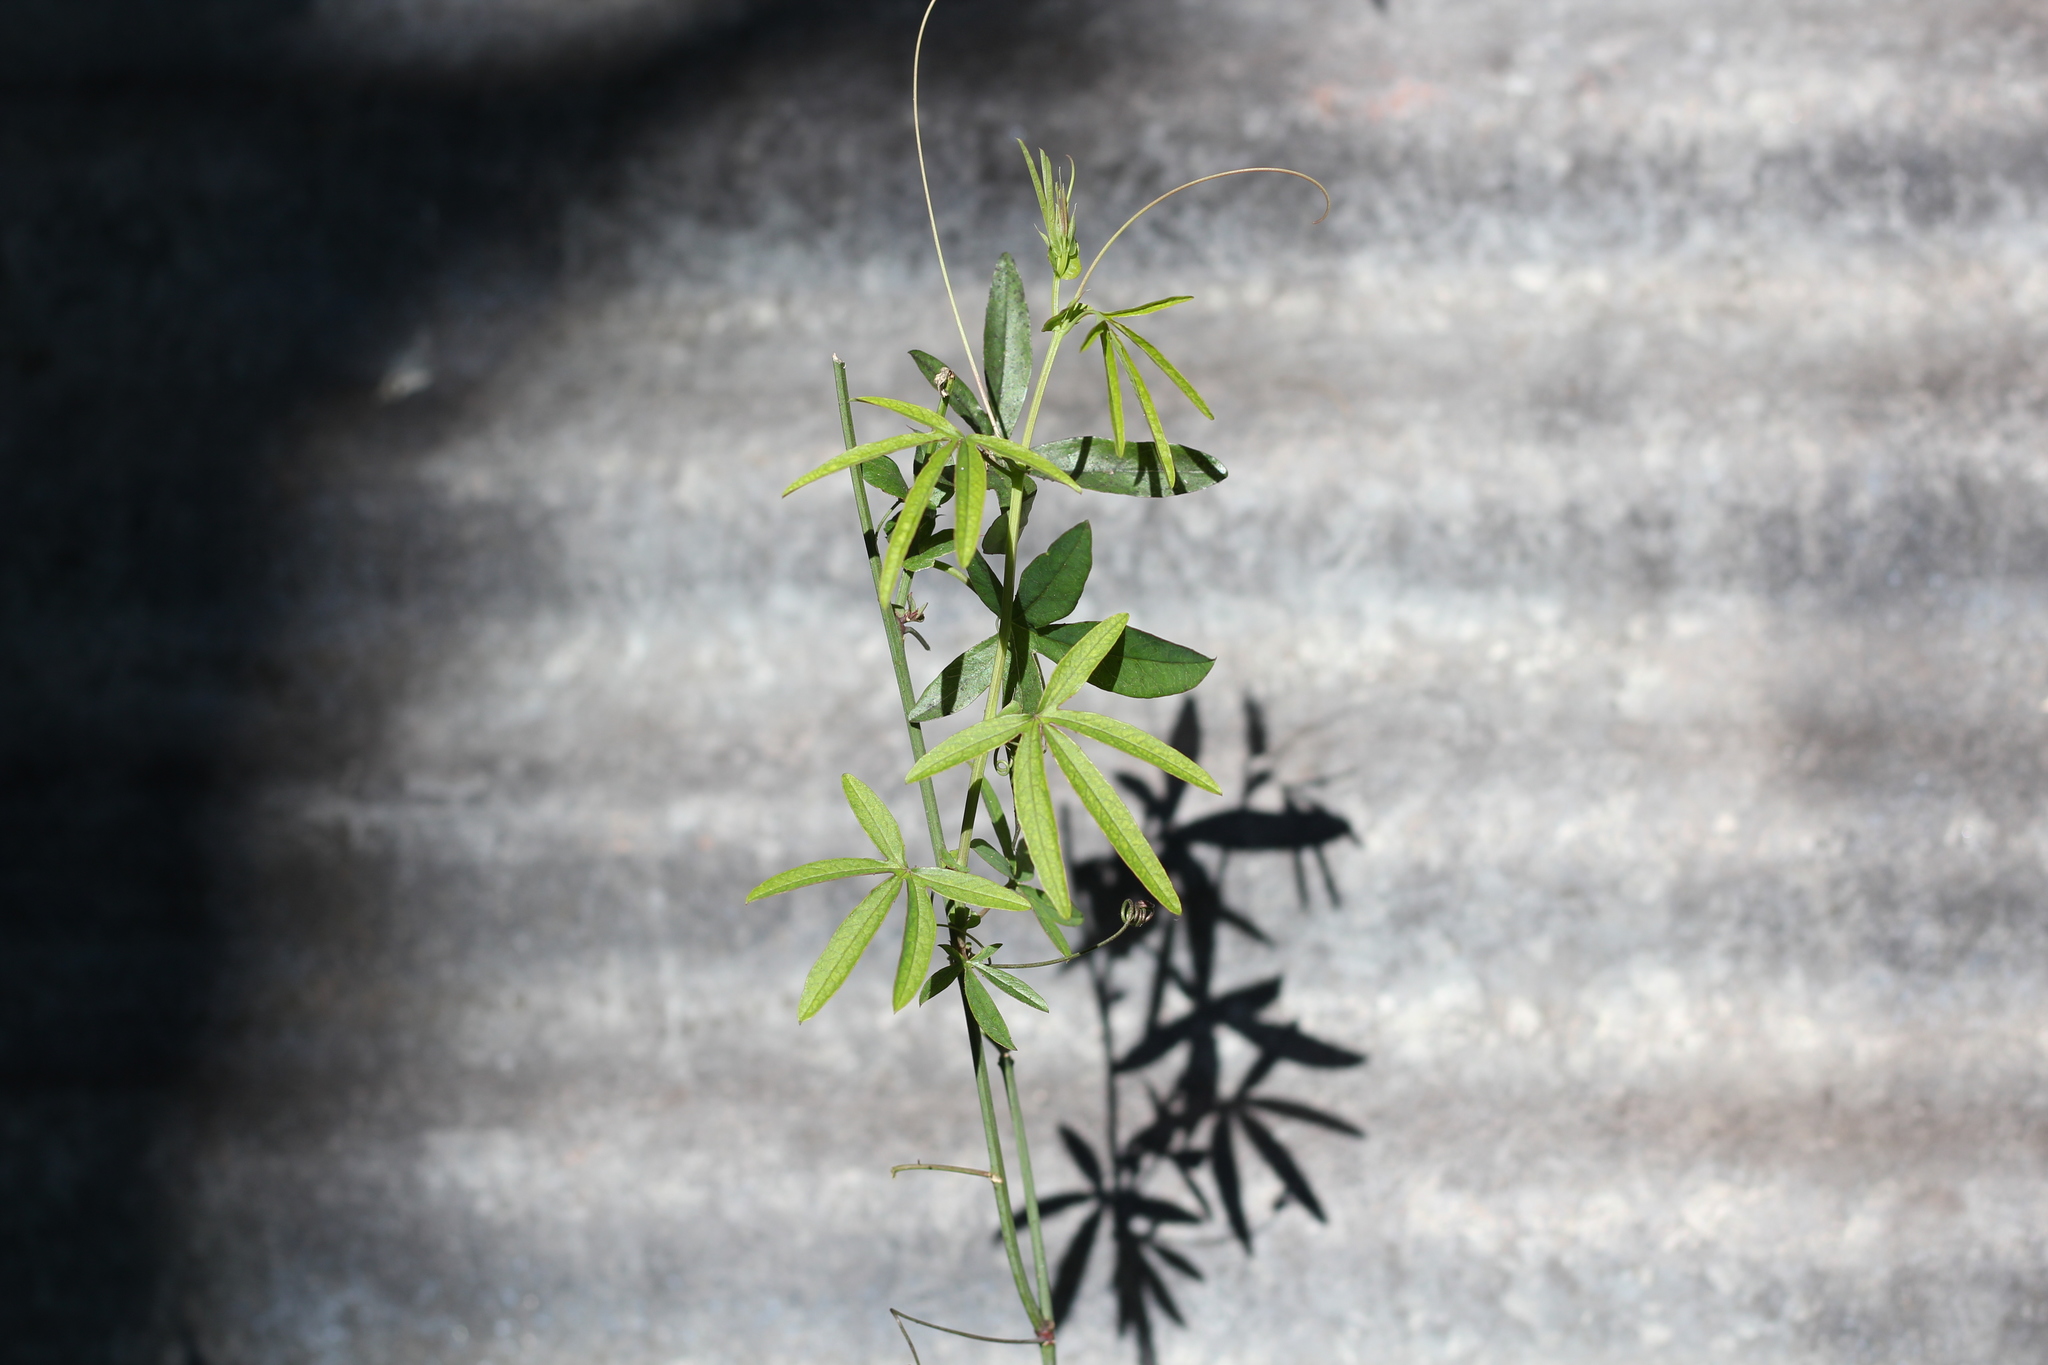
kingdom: Plantae
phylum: Tracheophyta
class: Magnoliopsida
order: Malpighiales
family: Passifloraceae
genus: Passiflora
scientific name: Passiflora caerulea
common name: Blue passionflower
